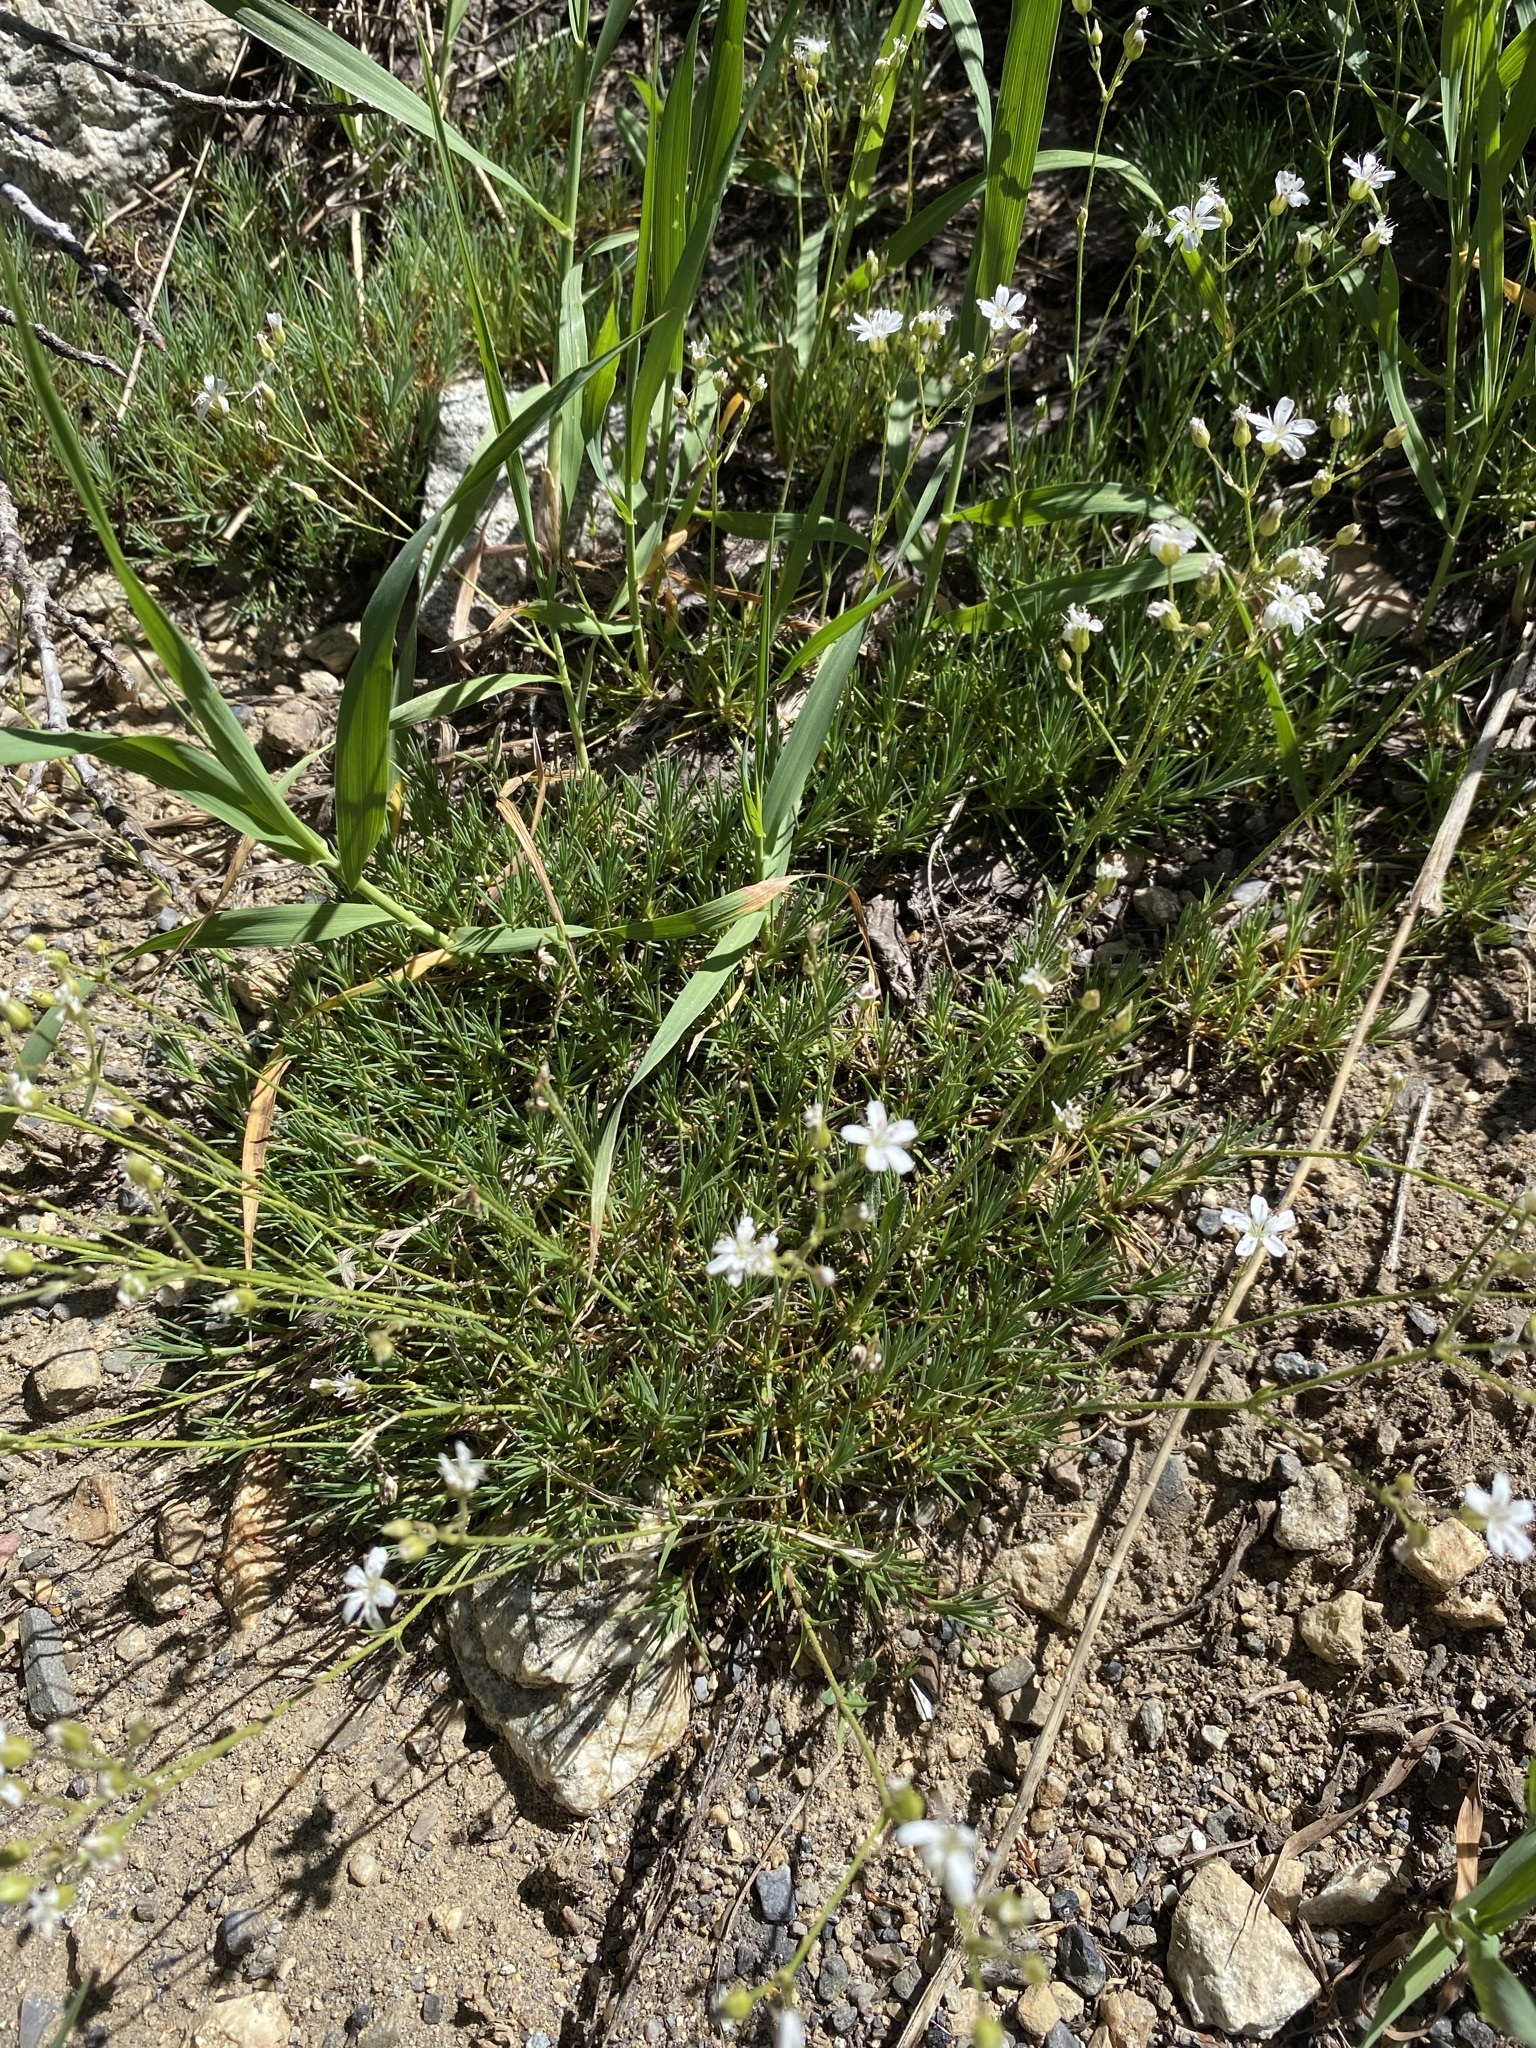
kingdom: Plantae
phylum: Tracheophyta
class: Magnoliopsida
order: Caryophyllales
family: Caryophyllaceae
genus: Eremogone
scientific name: Eremogone aculeata
